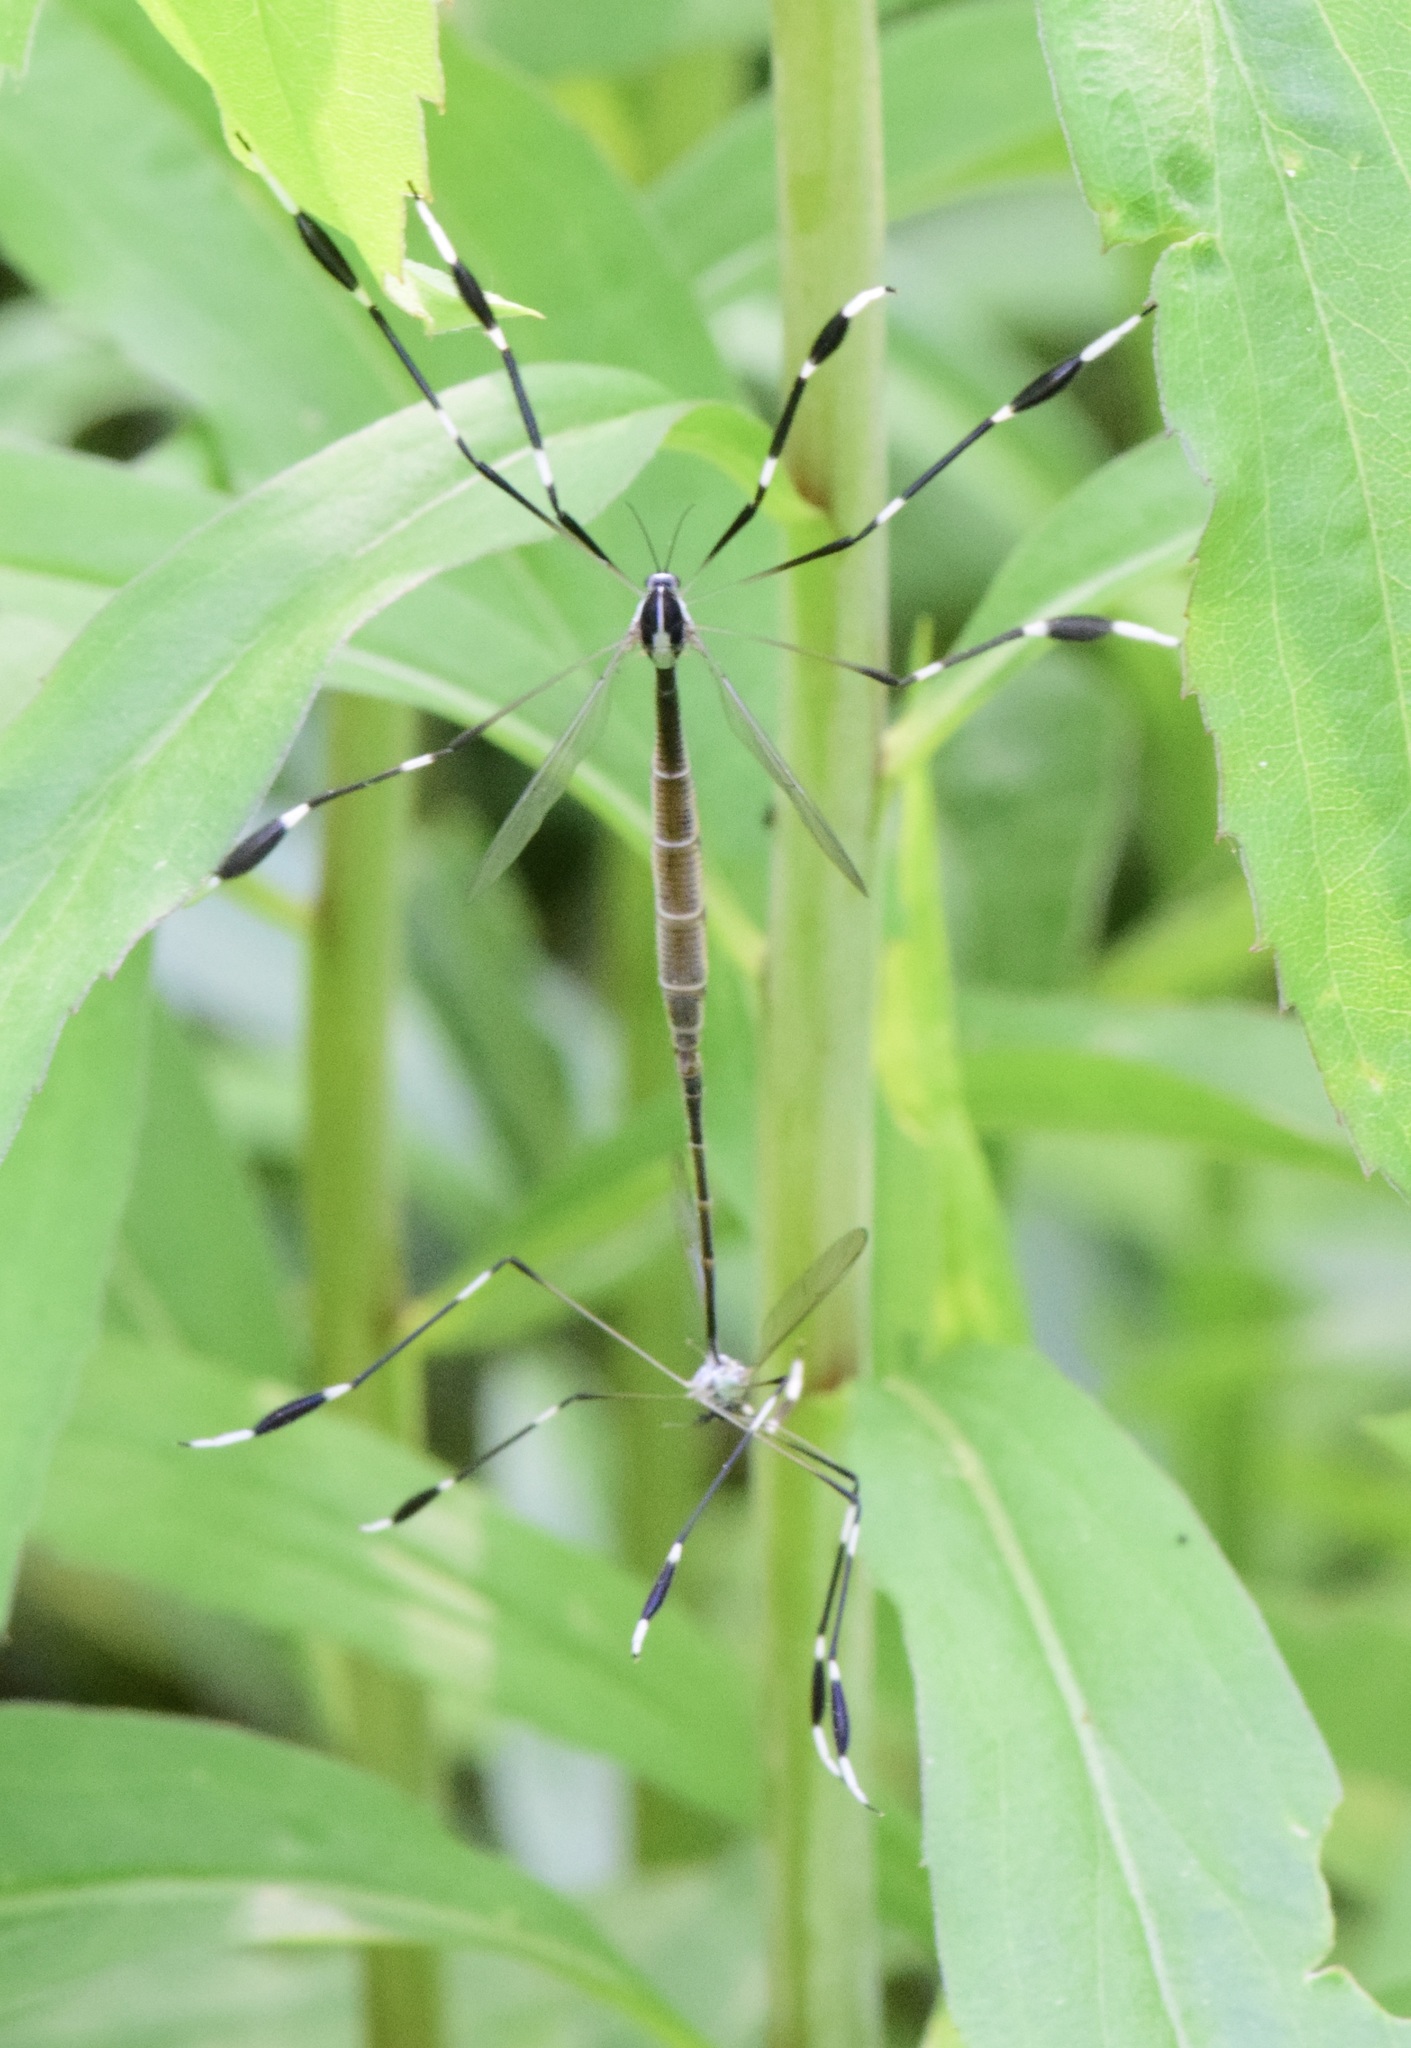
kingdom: Animalia
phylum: Arthropoda
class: Insecta
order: Diptera
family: Ptychopteridae
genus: Bittacomorpha
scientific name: Bittacomorpha clavipes
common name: Eastern phantom crane fly
